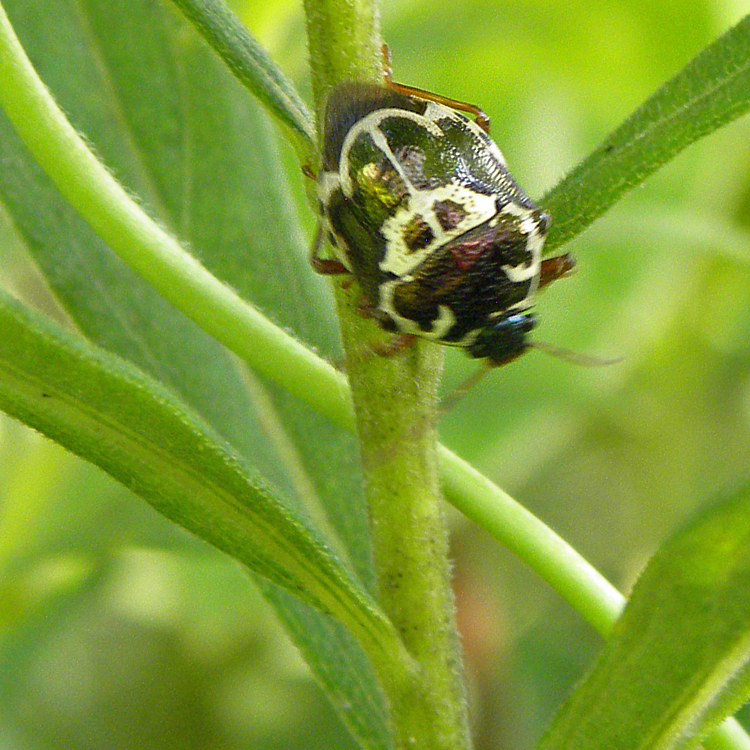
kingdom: Animalia
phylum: Arthropoda
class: Insecta
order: Hemiptera
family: Pentatomidae
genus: Stiretrus
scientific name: Stiretrus anchorago
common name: Anchor stink bug
